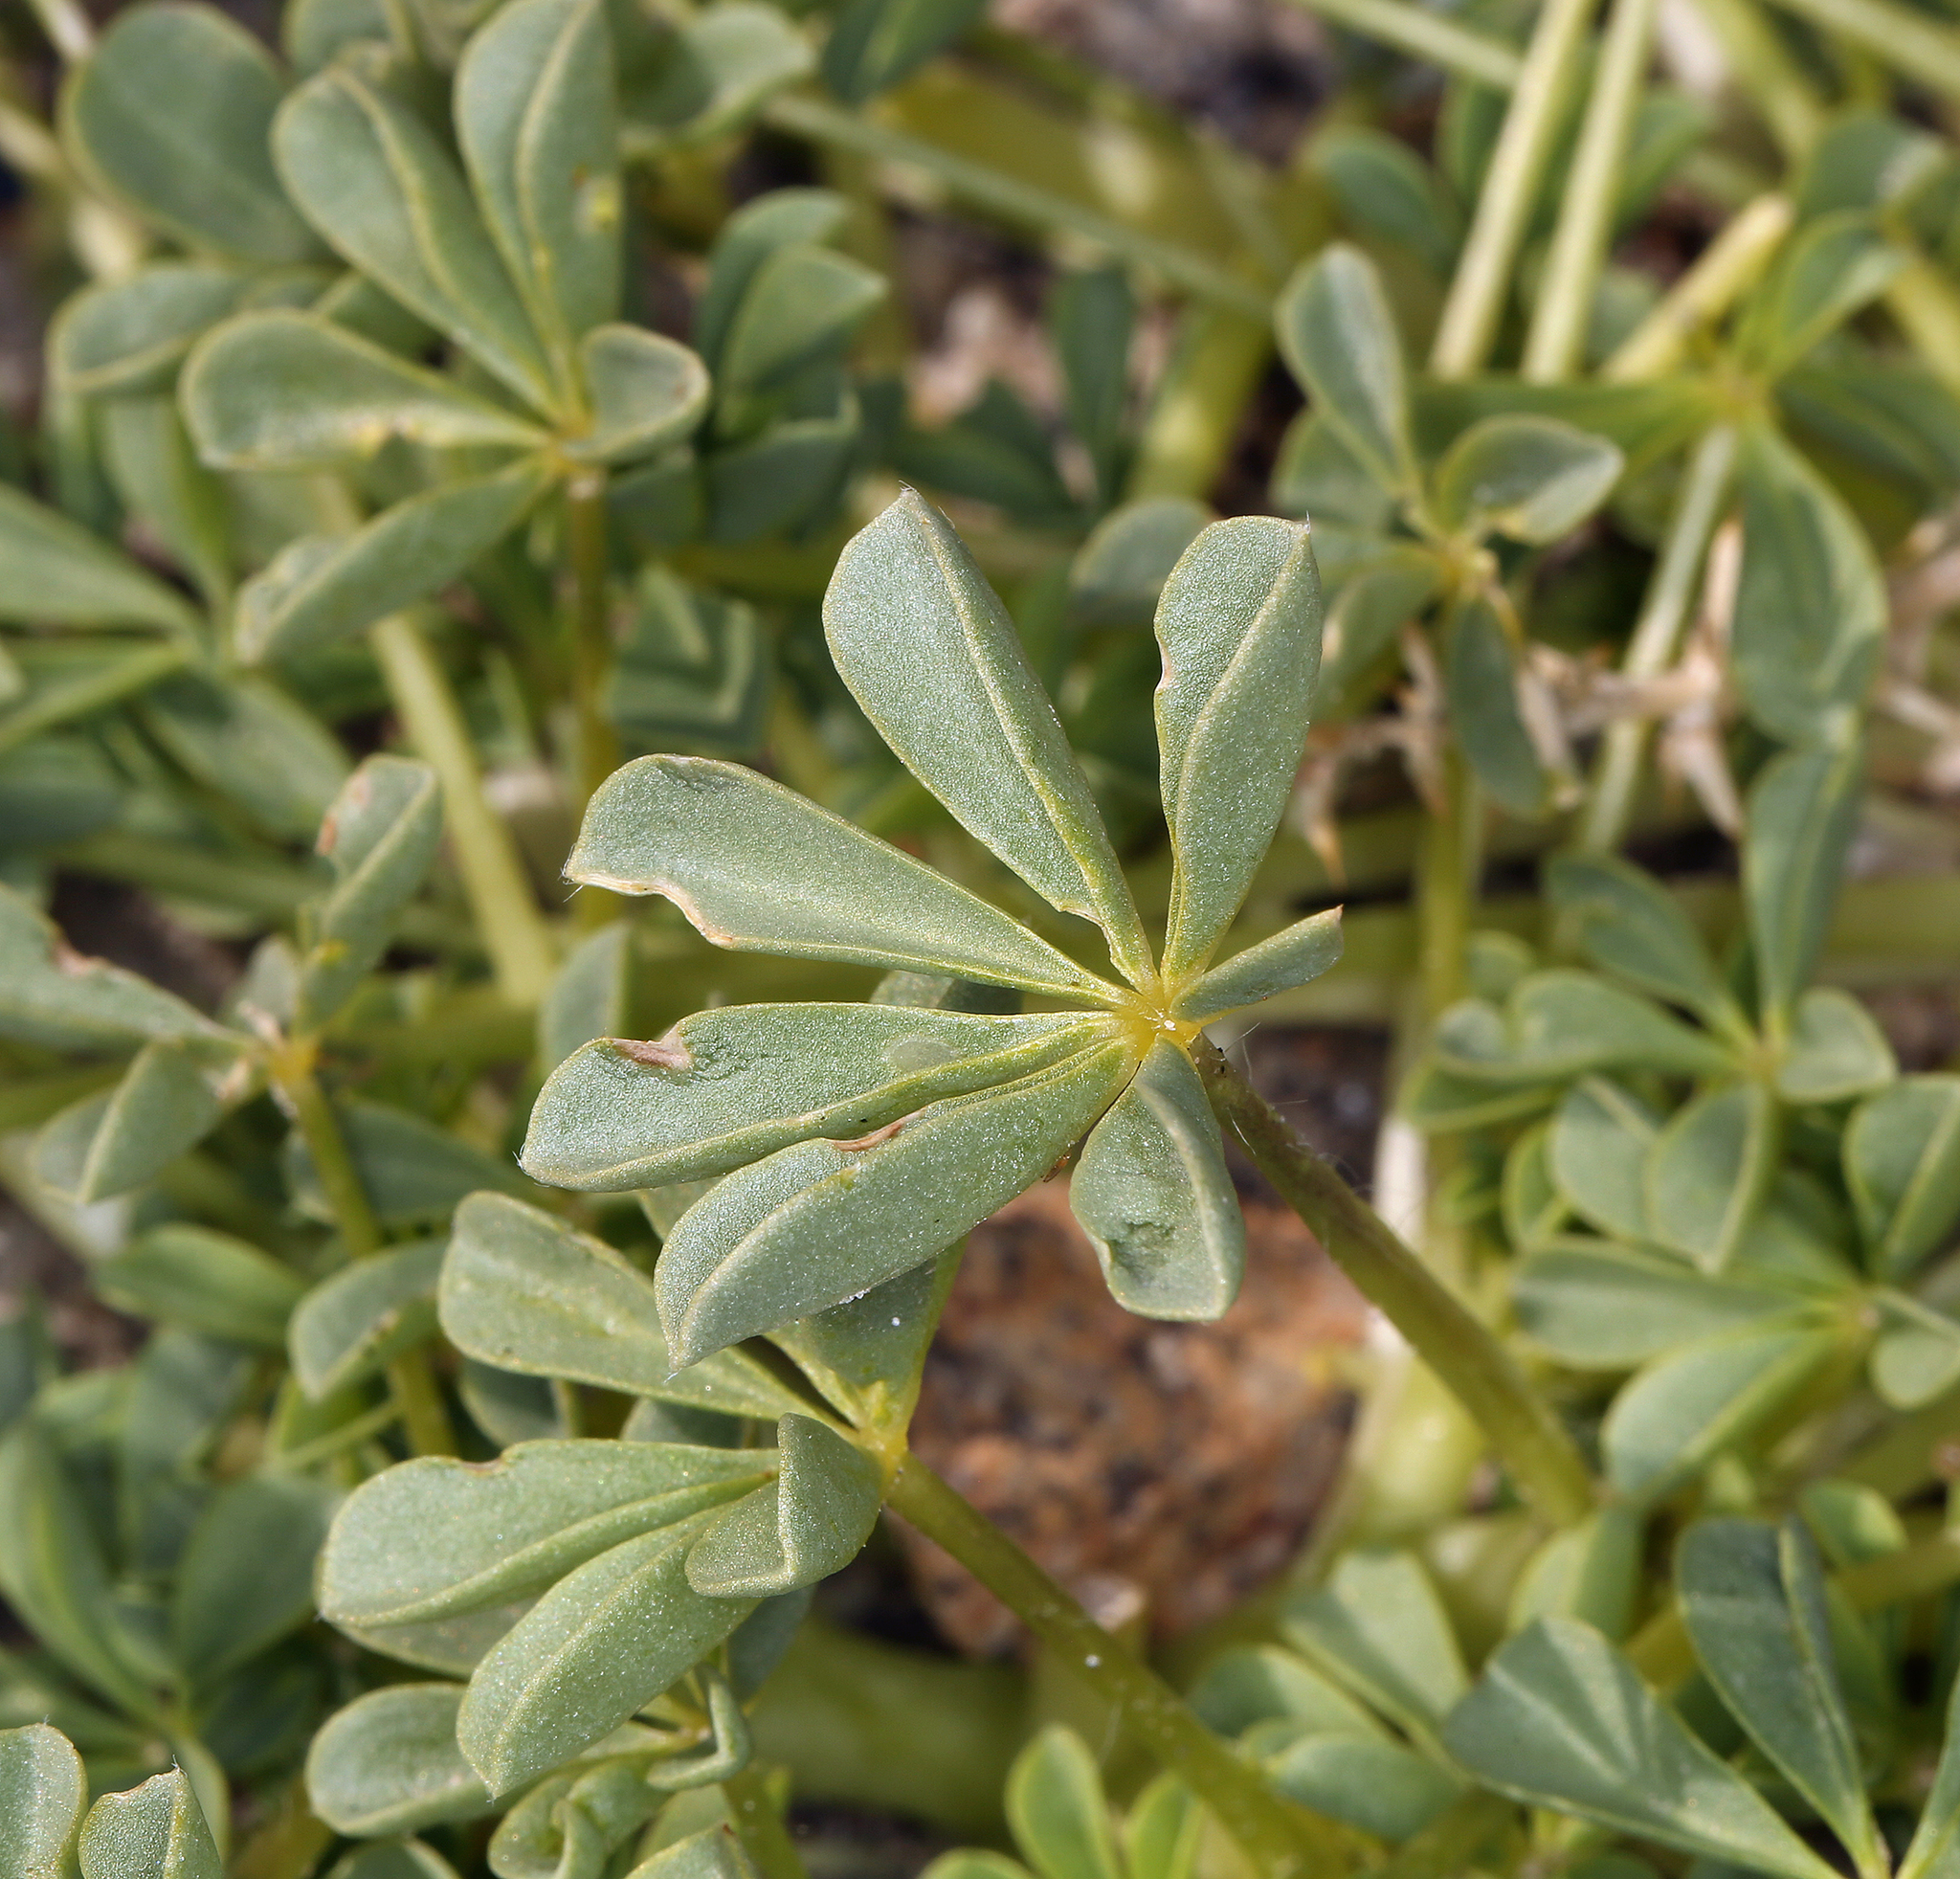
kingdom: Plantae
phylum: Tracheophyta
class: Magnoliopsida
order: Fabales
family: Fabaceae
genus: Lupinus
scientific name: Lupinus
